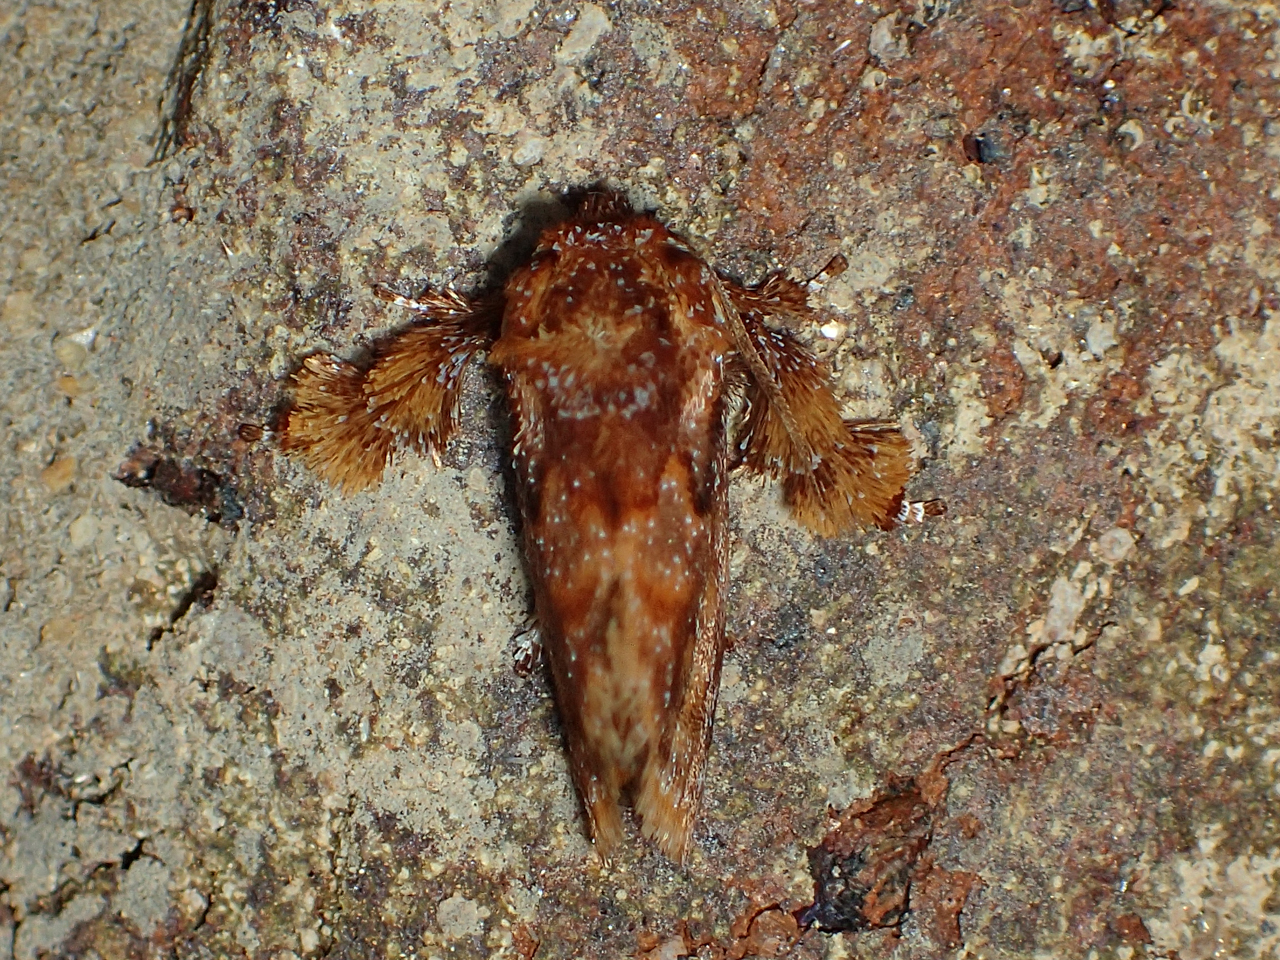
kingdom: Animalia
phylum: Arthropoda
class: Insecta
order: Lepidoptera
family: Limacodidae
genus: Isochaetes
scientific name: Isochaetes beutenmuelleri
